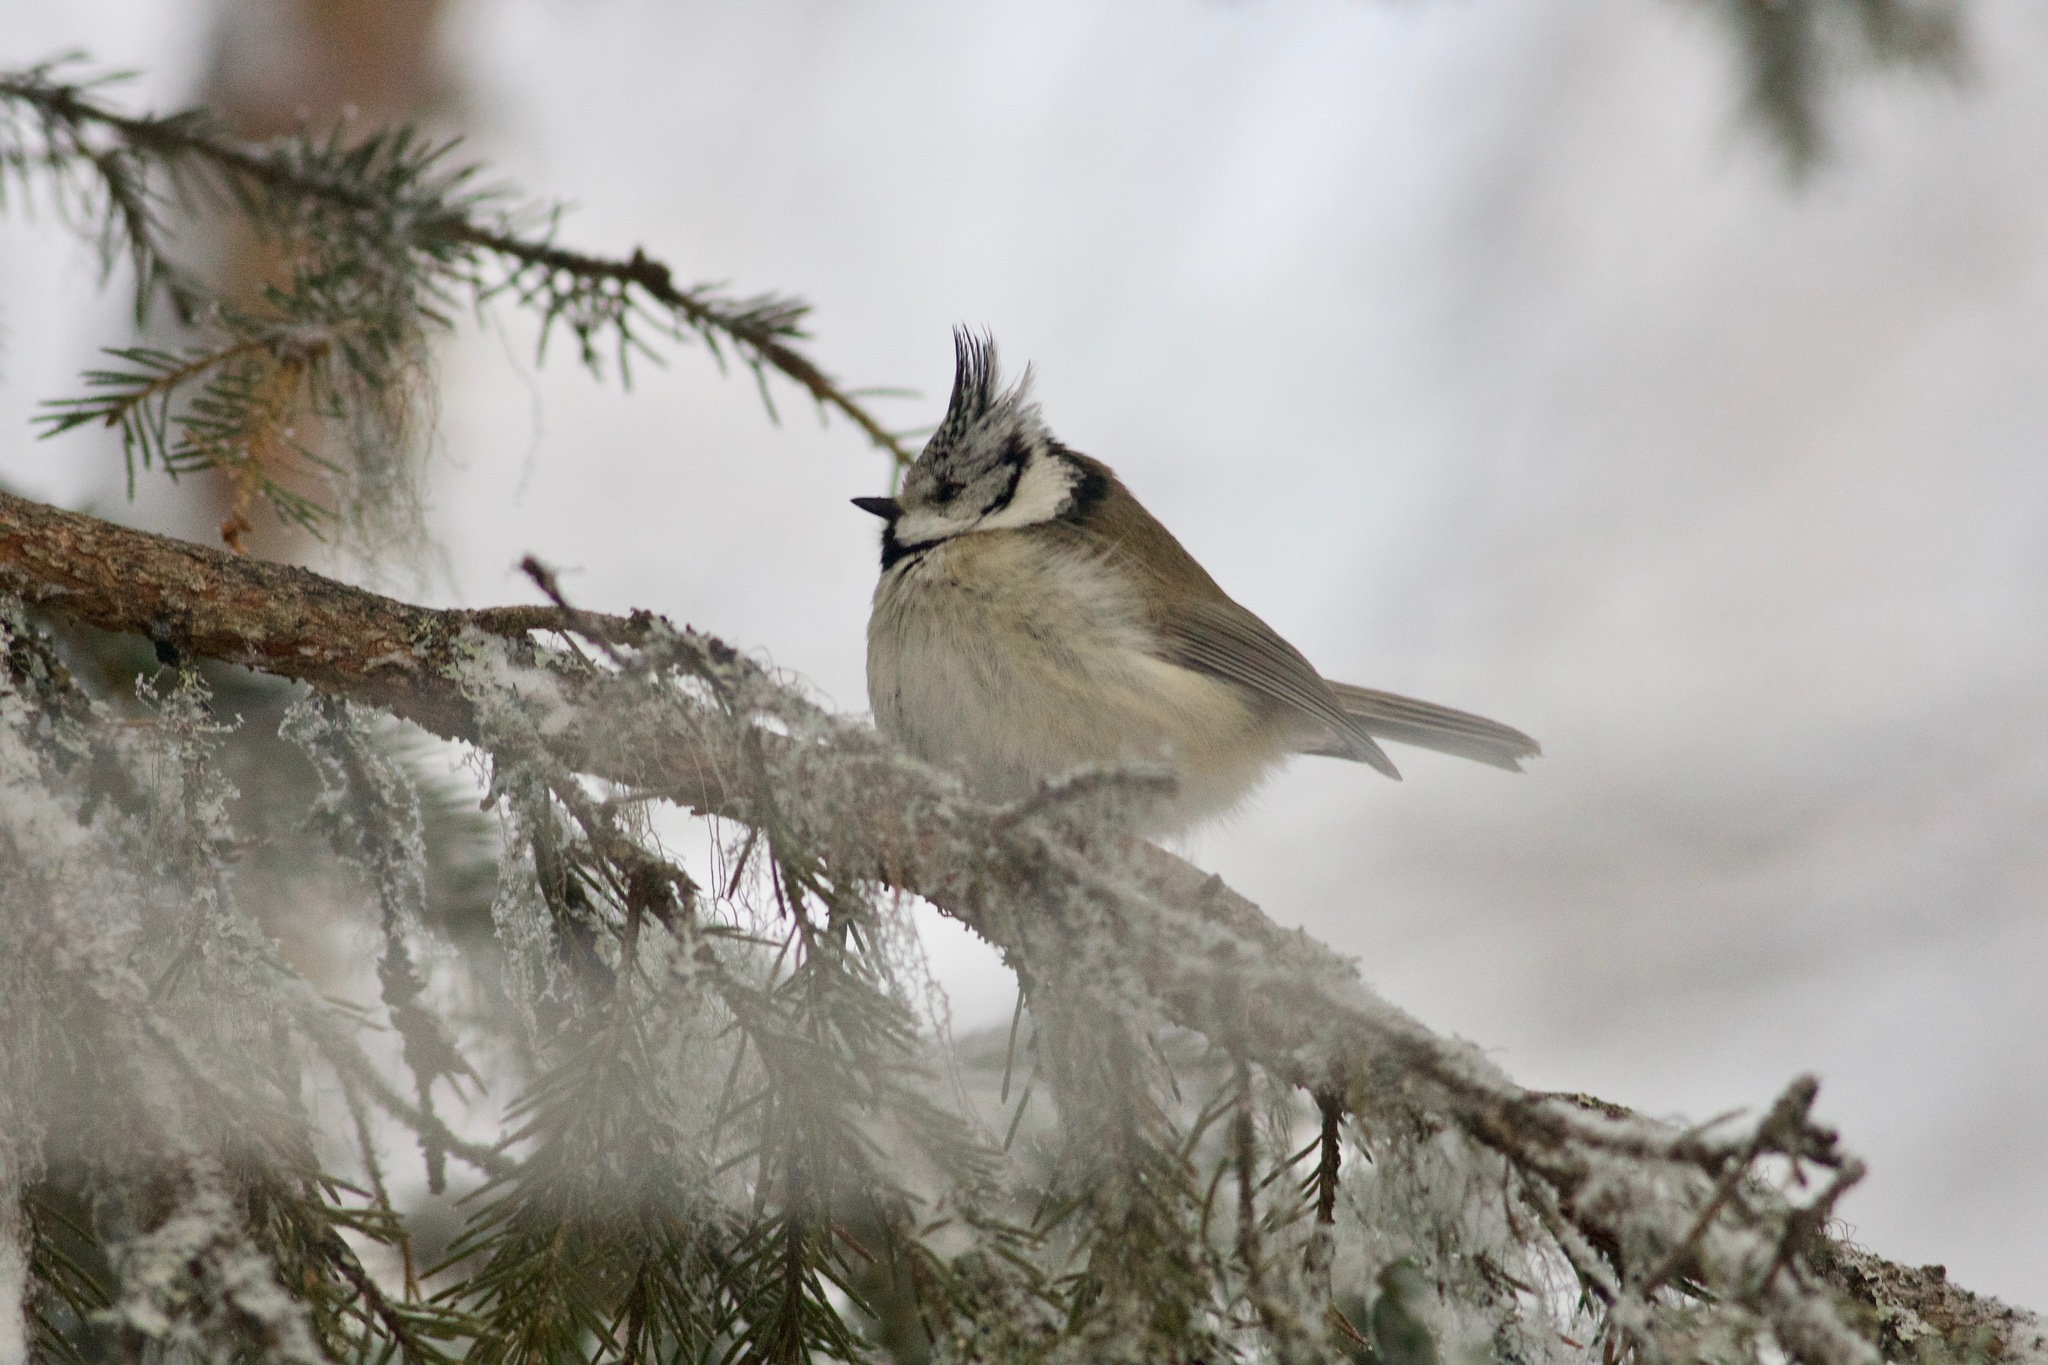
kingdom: Animalia
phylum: Chordata
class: Aves
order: Passeriformes
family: Paridae
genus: Lophophanes
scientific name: Lophophanes cristatus
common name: European crested tit
